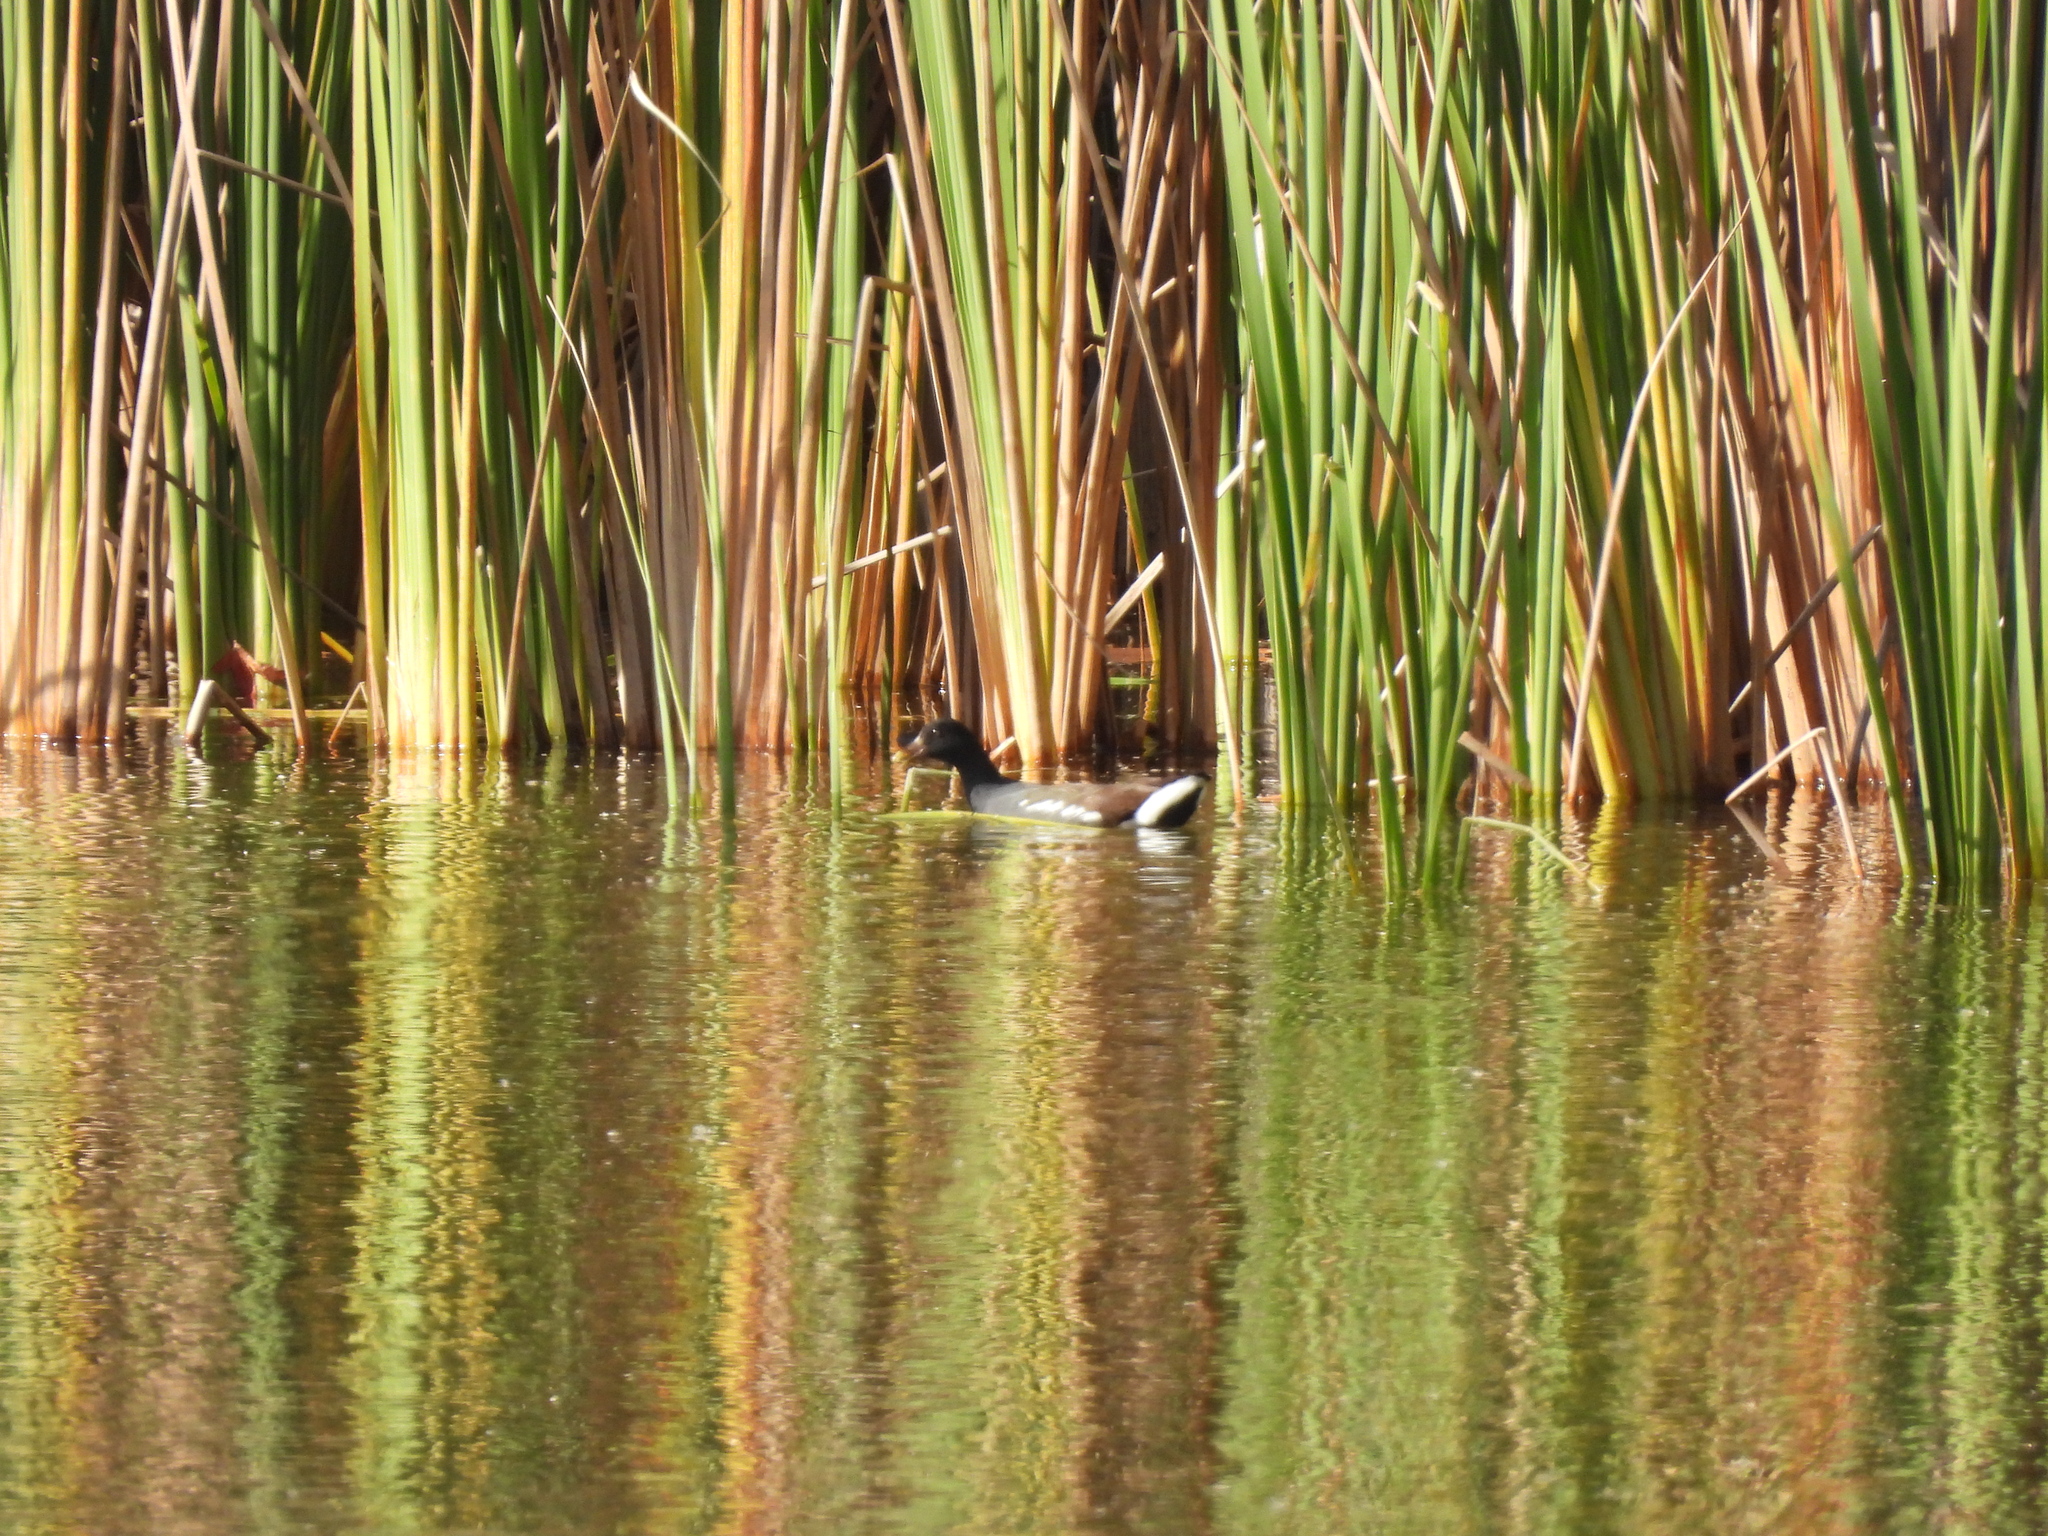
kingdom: Animalia
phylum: Chordata
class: Aves
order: Gruiformes
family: Rallidae
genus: Gallinula
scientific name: Gallinula chloropus
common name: Common moorhen
